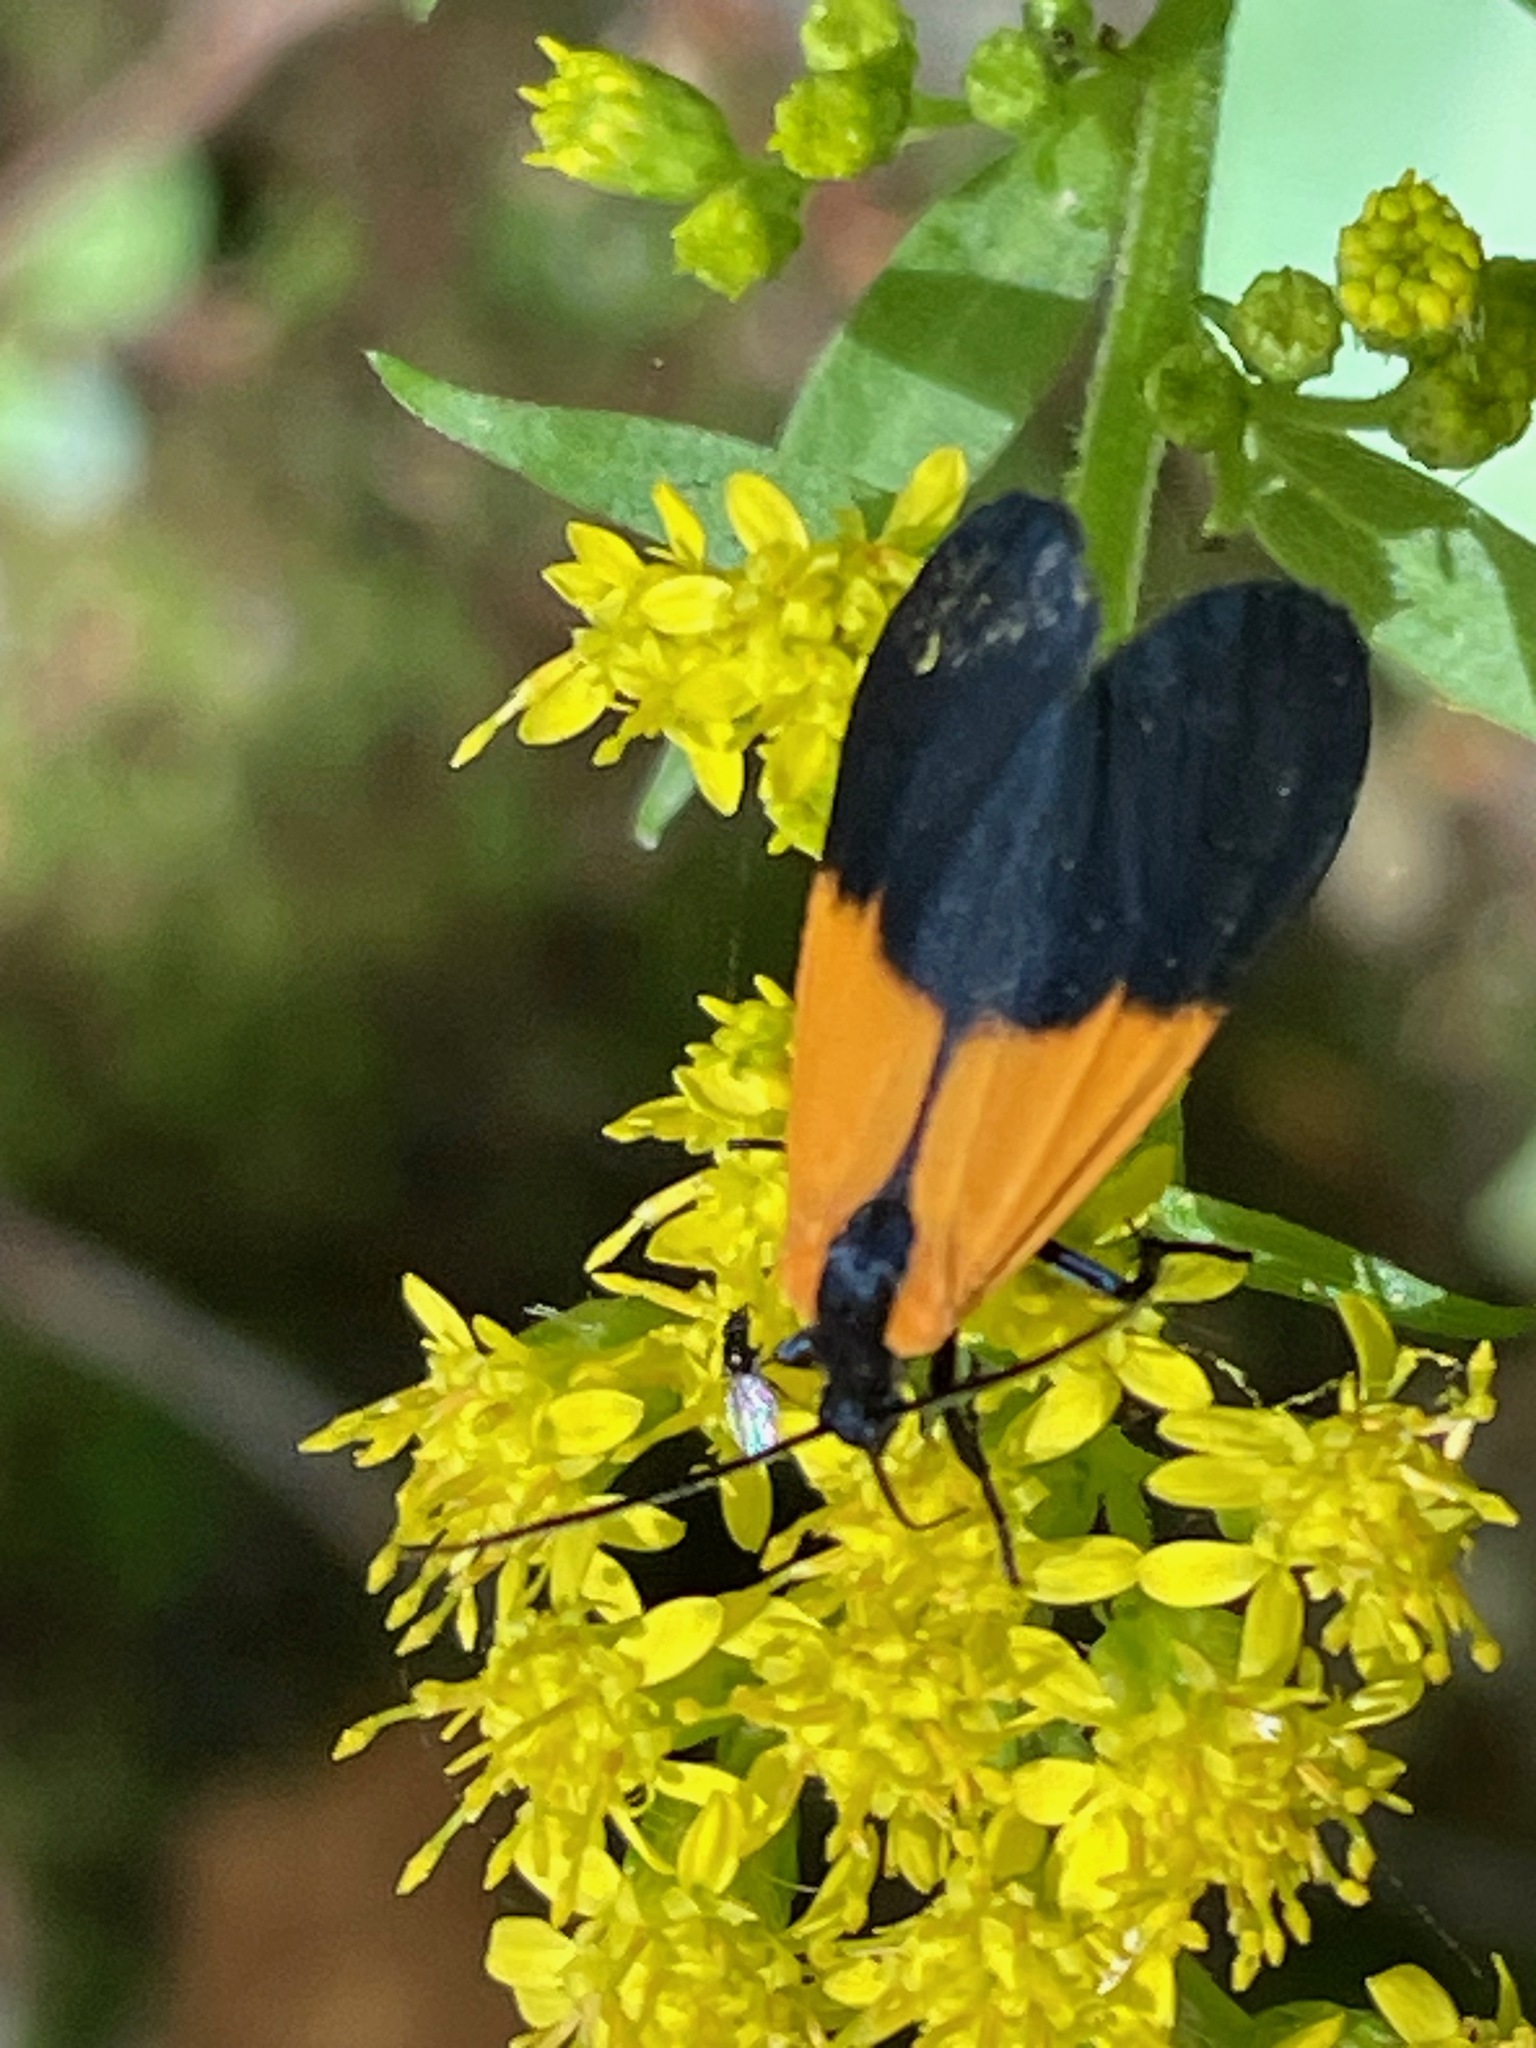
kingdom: Animalia
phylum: Arthropoda
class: Insecta
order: Lepidoptera
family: Erebidae
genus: Lycomorpha
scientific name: Lycomorpha pholus
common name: Black-and-yellow lichen moth
